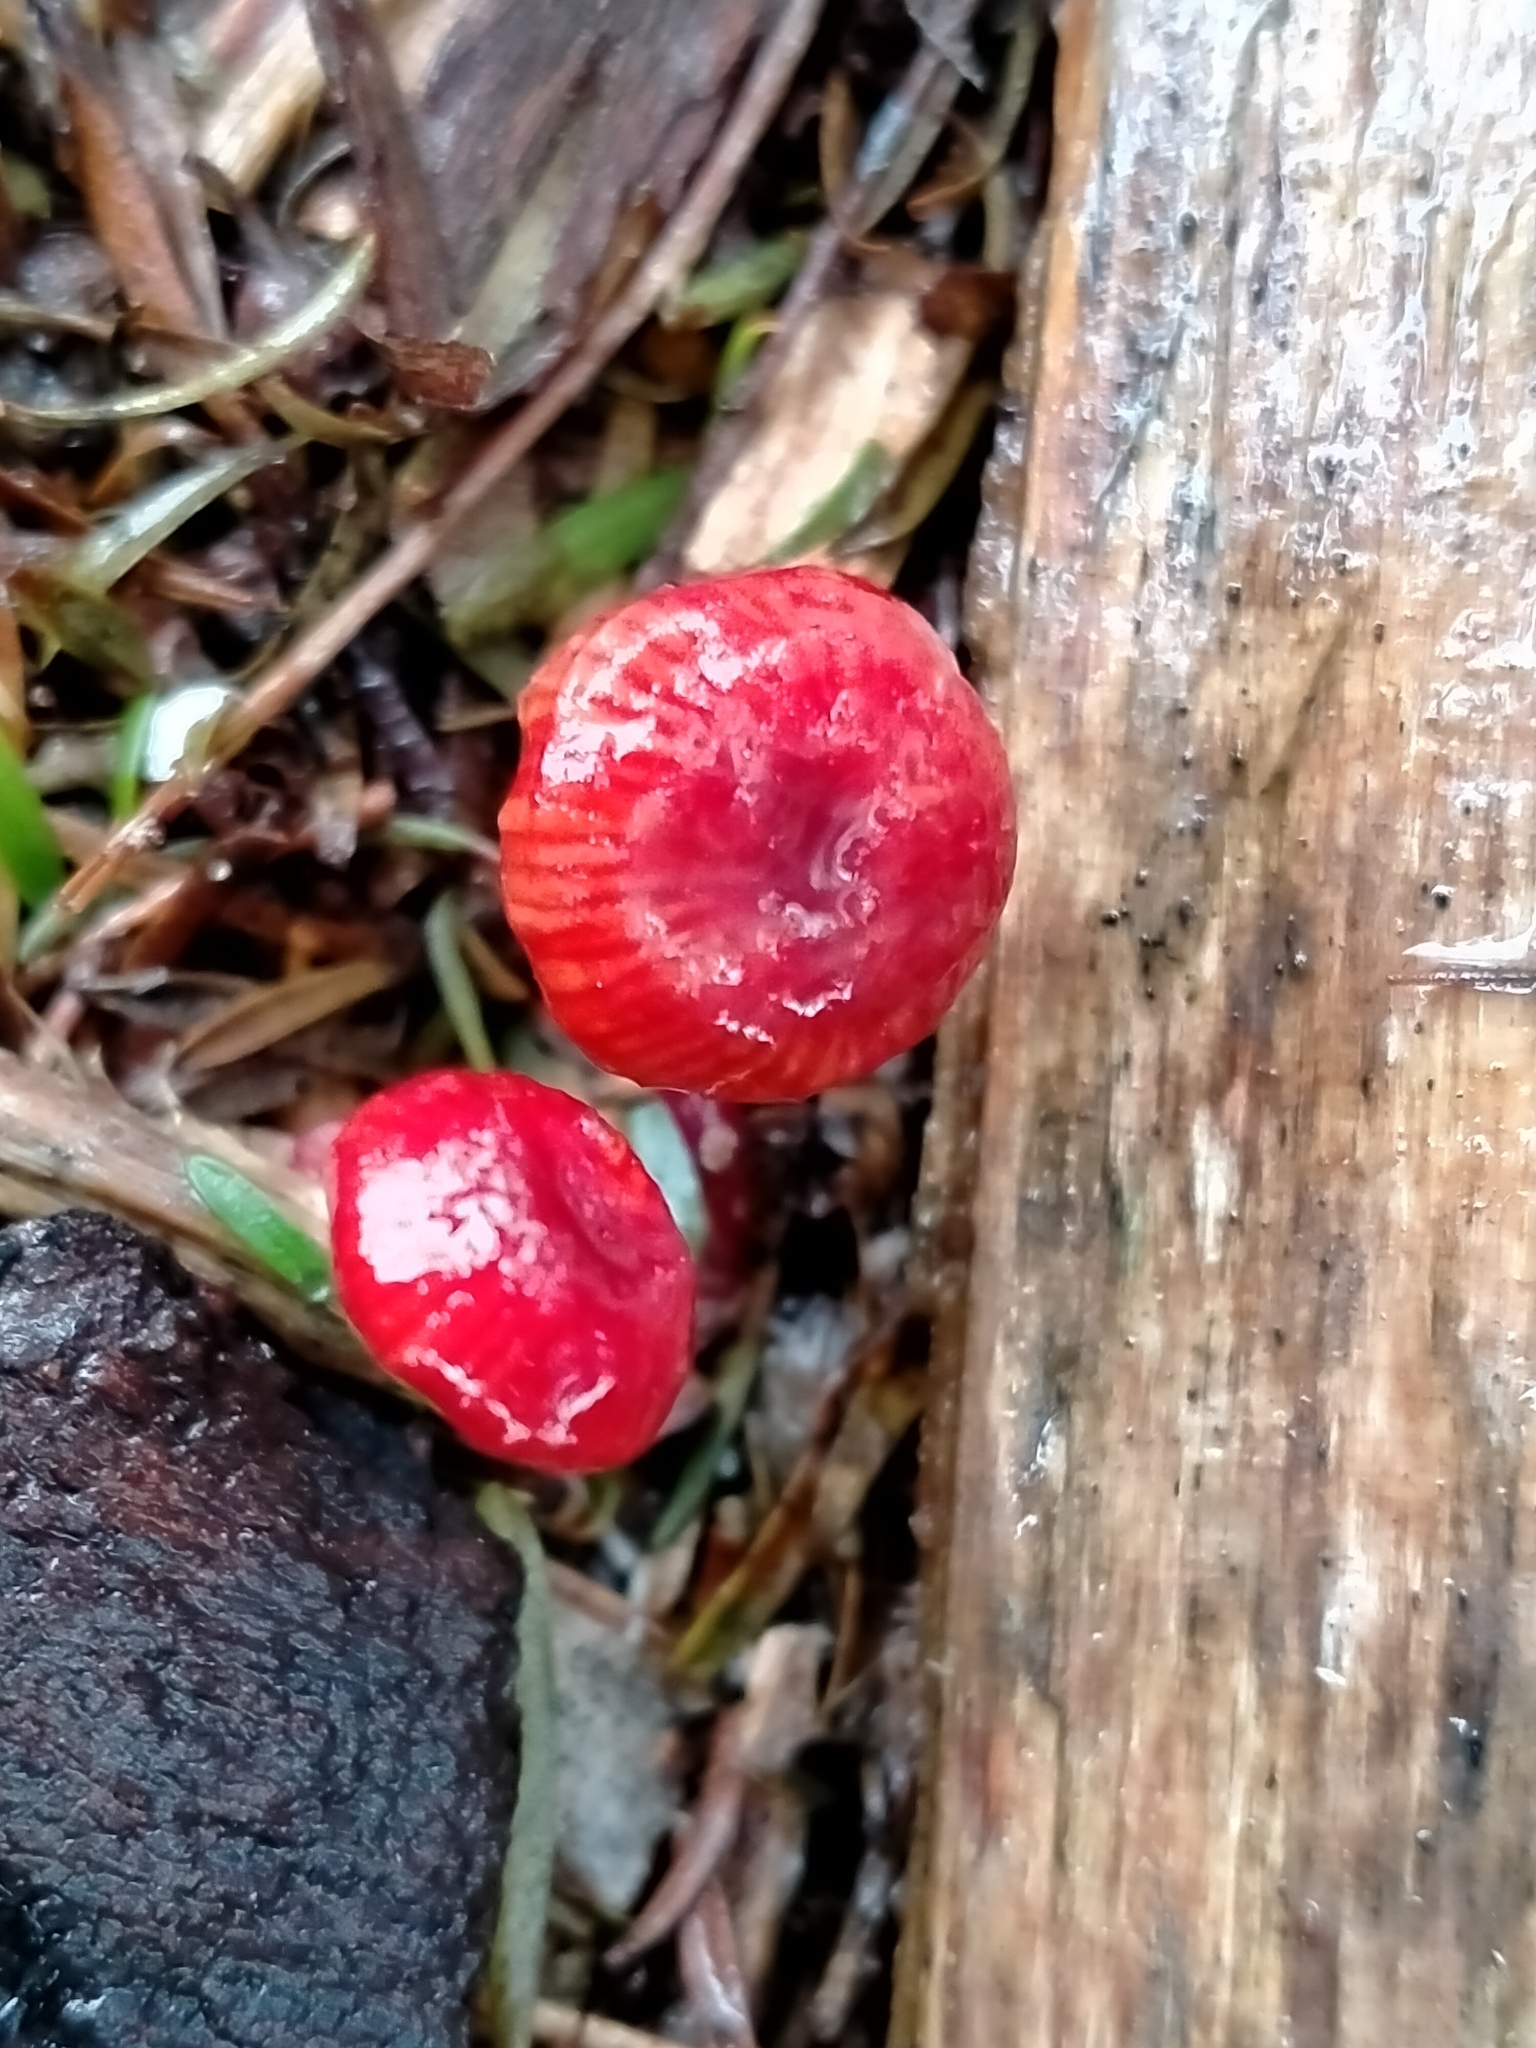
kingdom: Fungi
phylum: Basidiomycota
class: Agaricomycetes
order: Agaricales
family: Mycenaceae
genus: Cruentomycena
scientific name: Cruentomycena viscidocruenta
